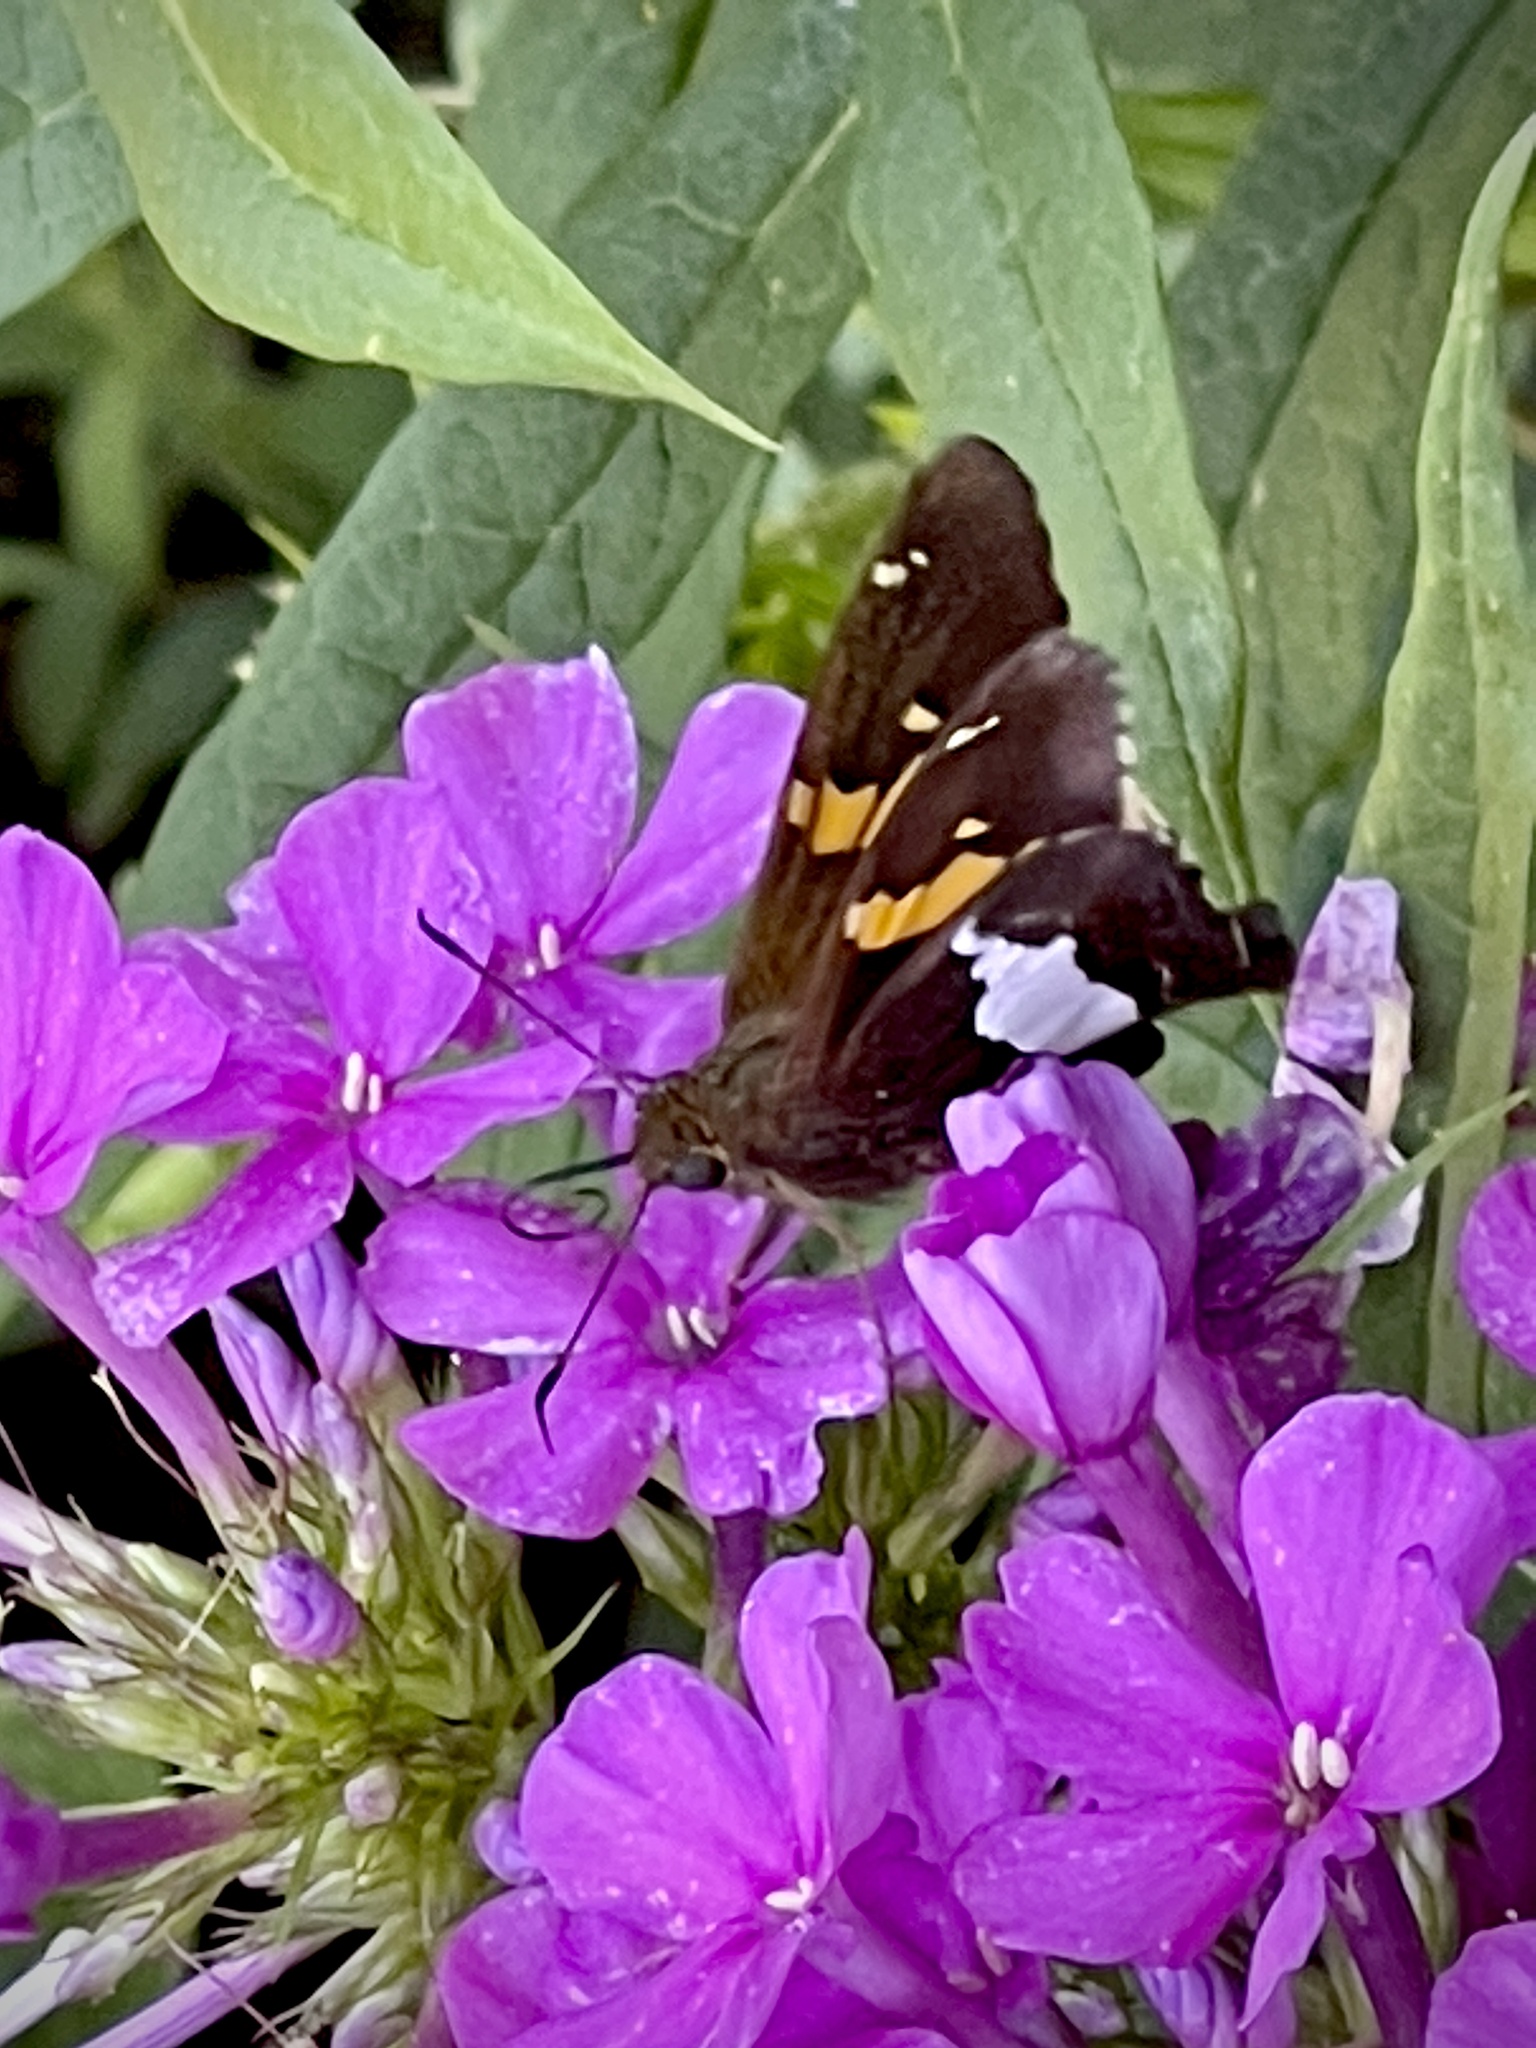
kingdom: Animalia
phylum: Arthropoda
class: Insecta
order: Lepidoptera
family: Hesperiidae
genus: Epargyreus
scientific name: Epargyreus clarus
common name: Silver-spotted skipper
